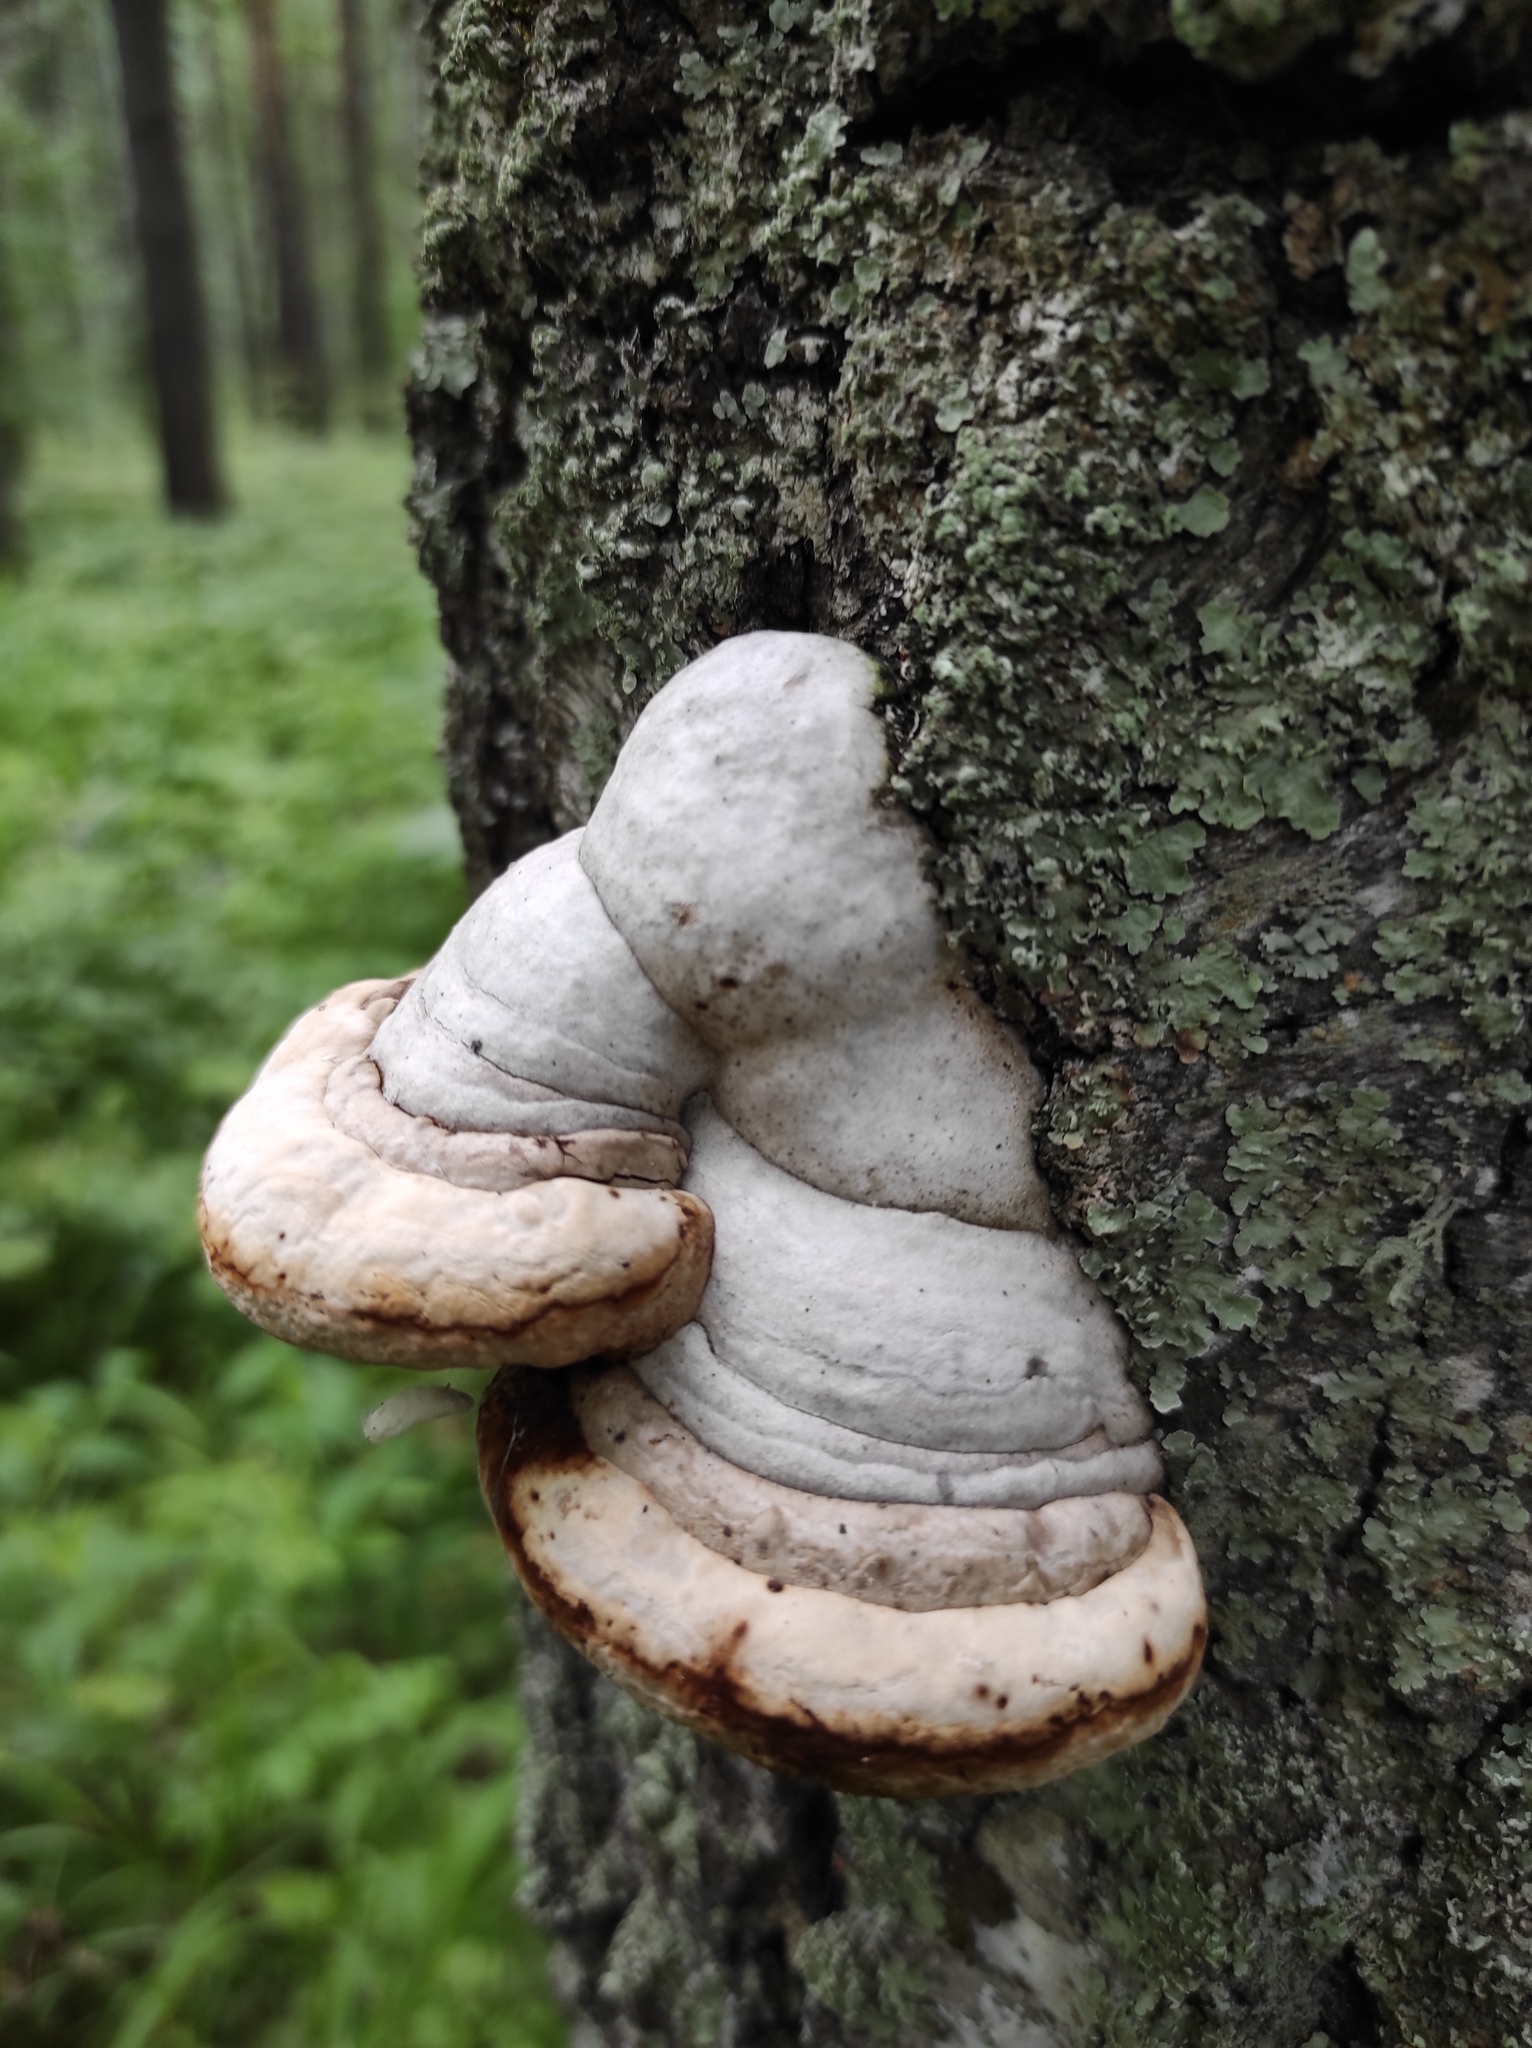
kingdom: Fungi
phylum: Basidiomycota
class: Agaricomycetes
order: Polyporales
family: Polyporaceae
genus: Fomes
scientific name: Fomes fomentarius
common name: Hoof fungus
